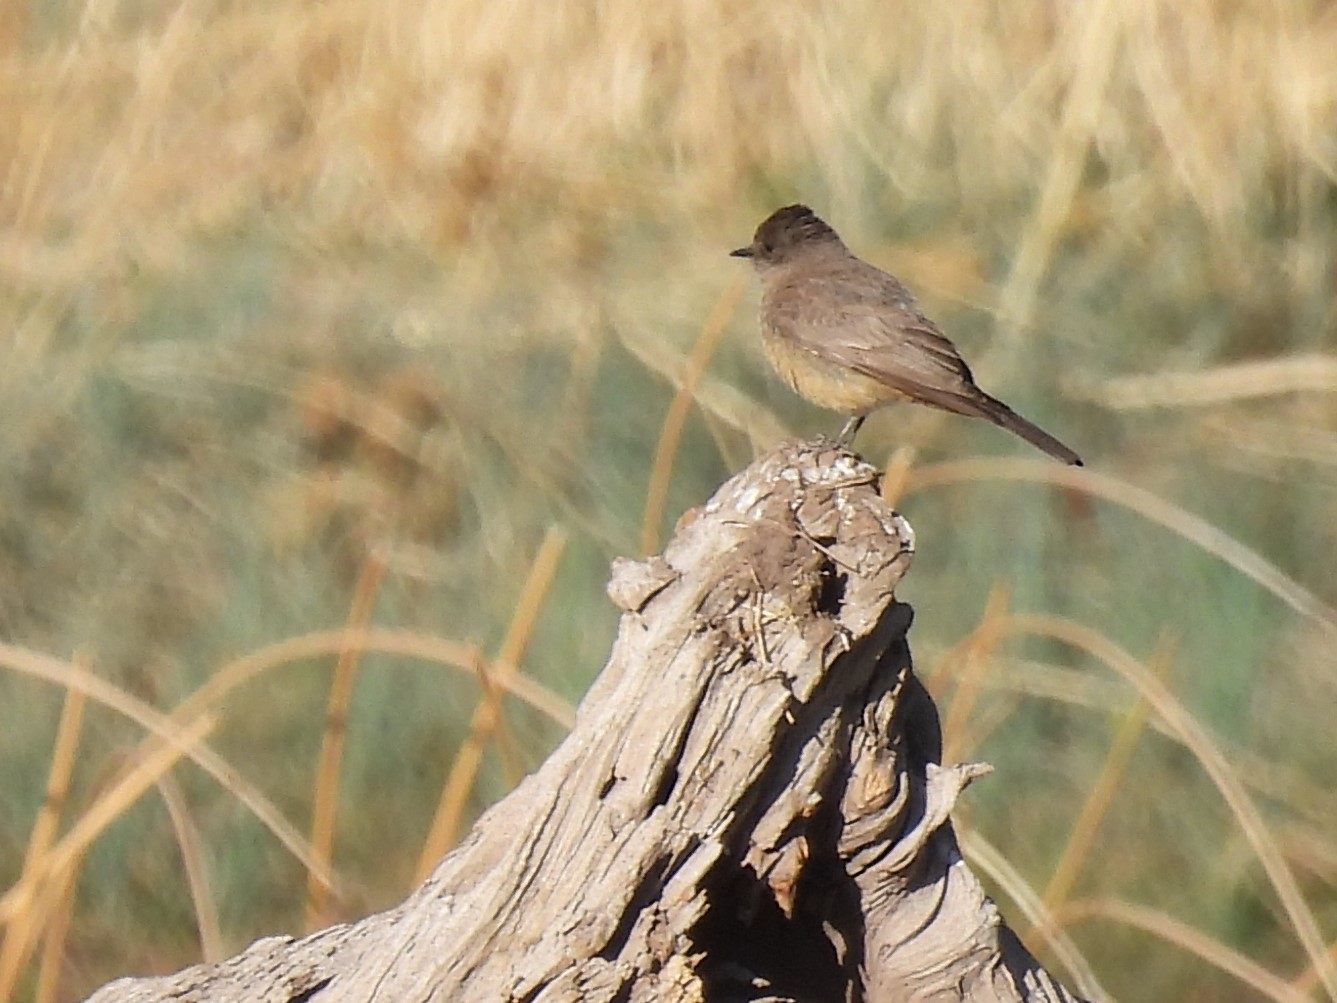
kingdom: Animalia
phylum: Chordata
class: Aves
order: Passeriformes
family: Tyrannidae
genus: Sayornis
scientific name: Sayornis saya
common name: Say's phoebe
